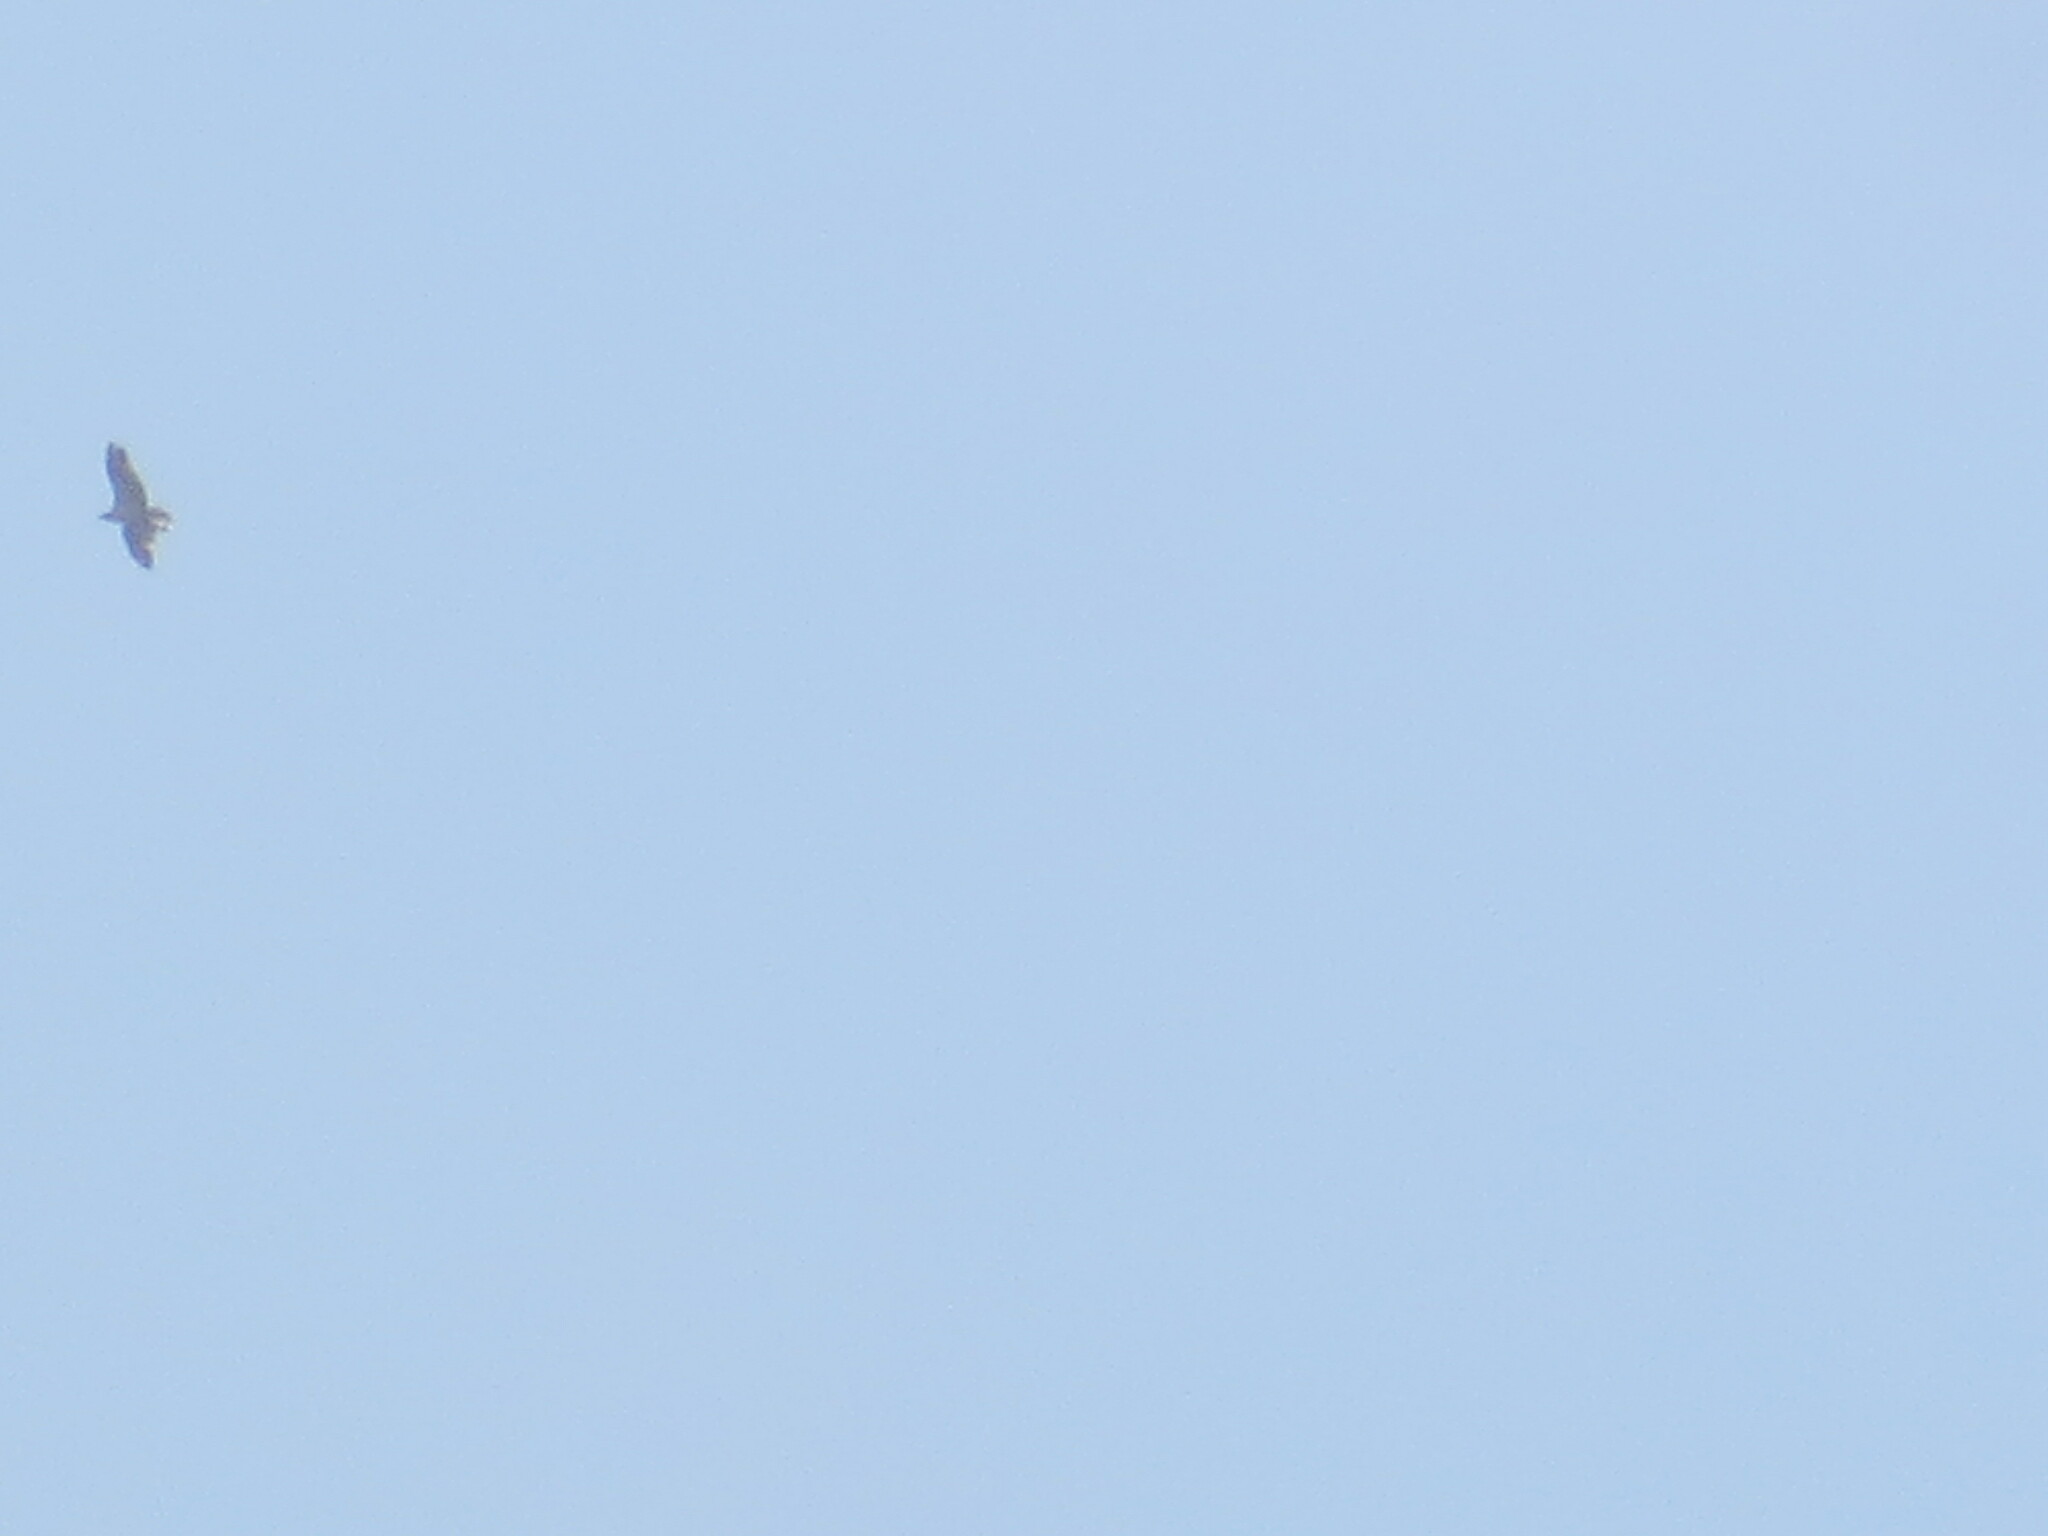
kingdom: Animalia
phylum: Chordata
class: Aves
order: Accipitriformes
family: Pandionidae
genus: Pandion
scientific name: Pandion haliaetus
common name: Osprey
